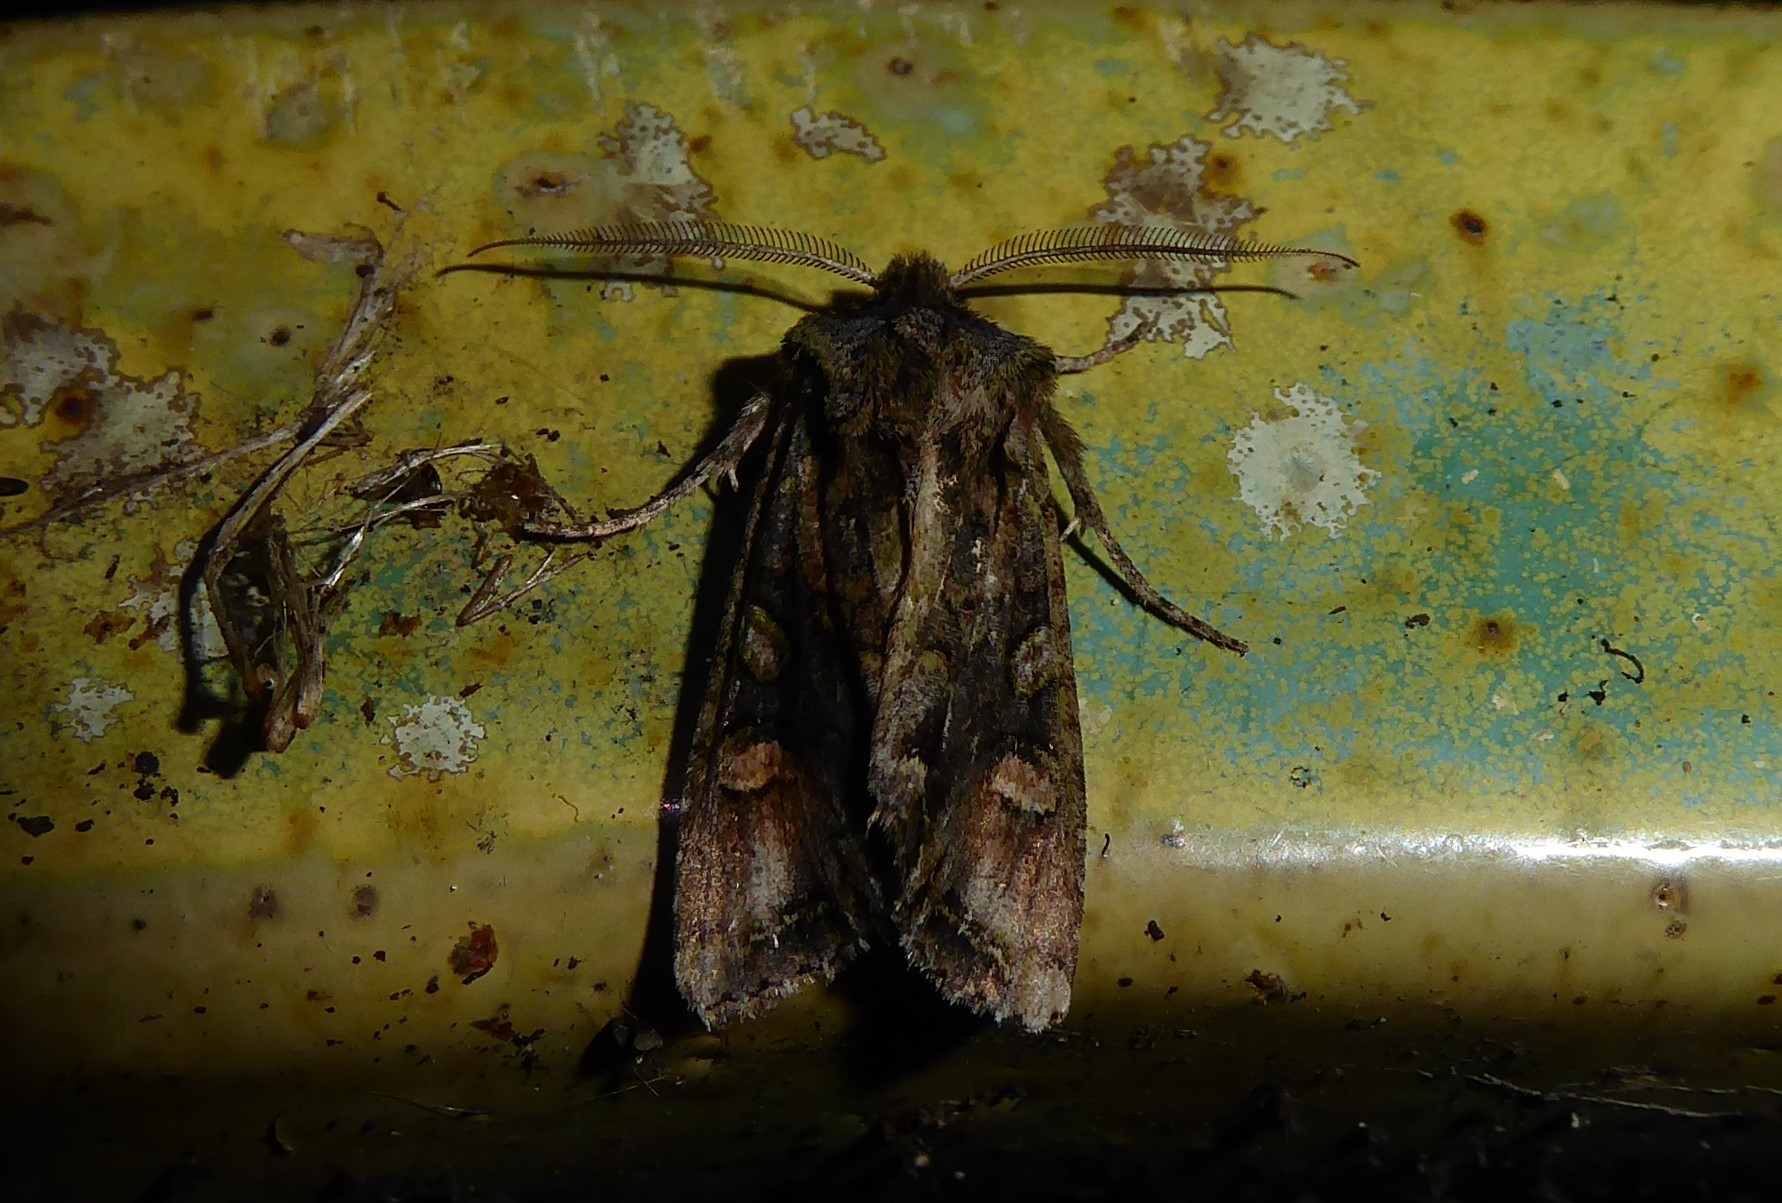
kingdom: Animalia
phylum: Arthropoda
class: Insecta
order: Lepidoptera
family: Noctuidae
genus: Ichneutica
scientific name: Ichneutica
